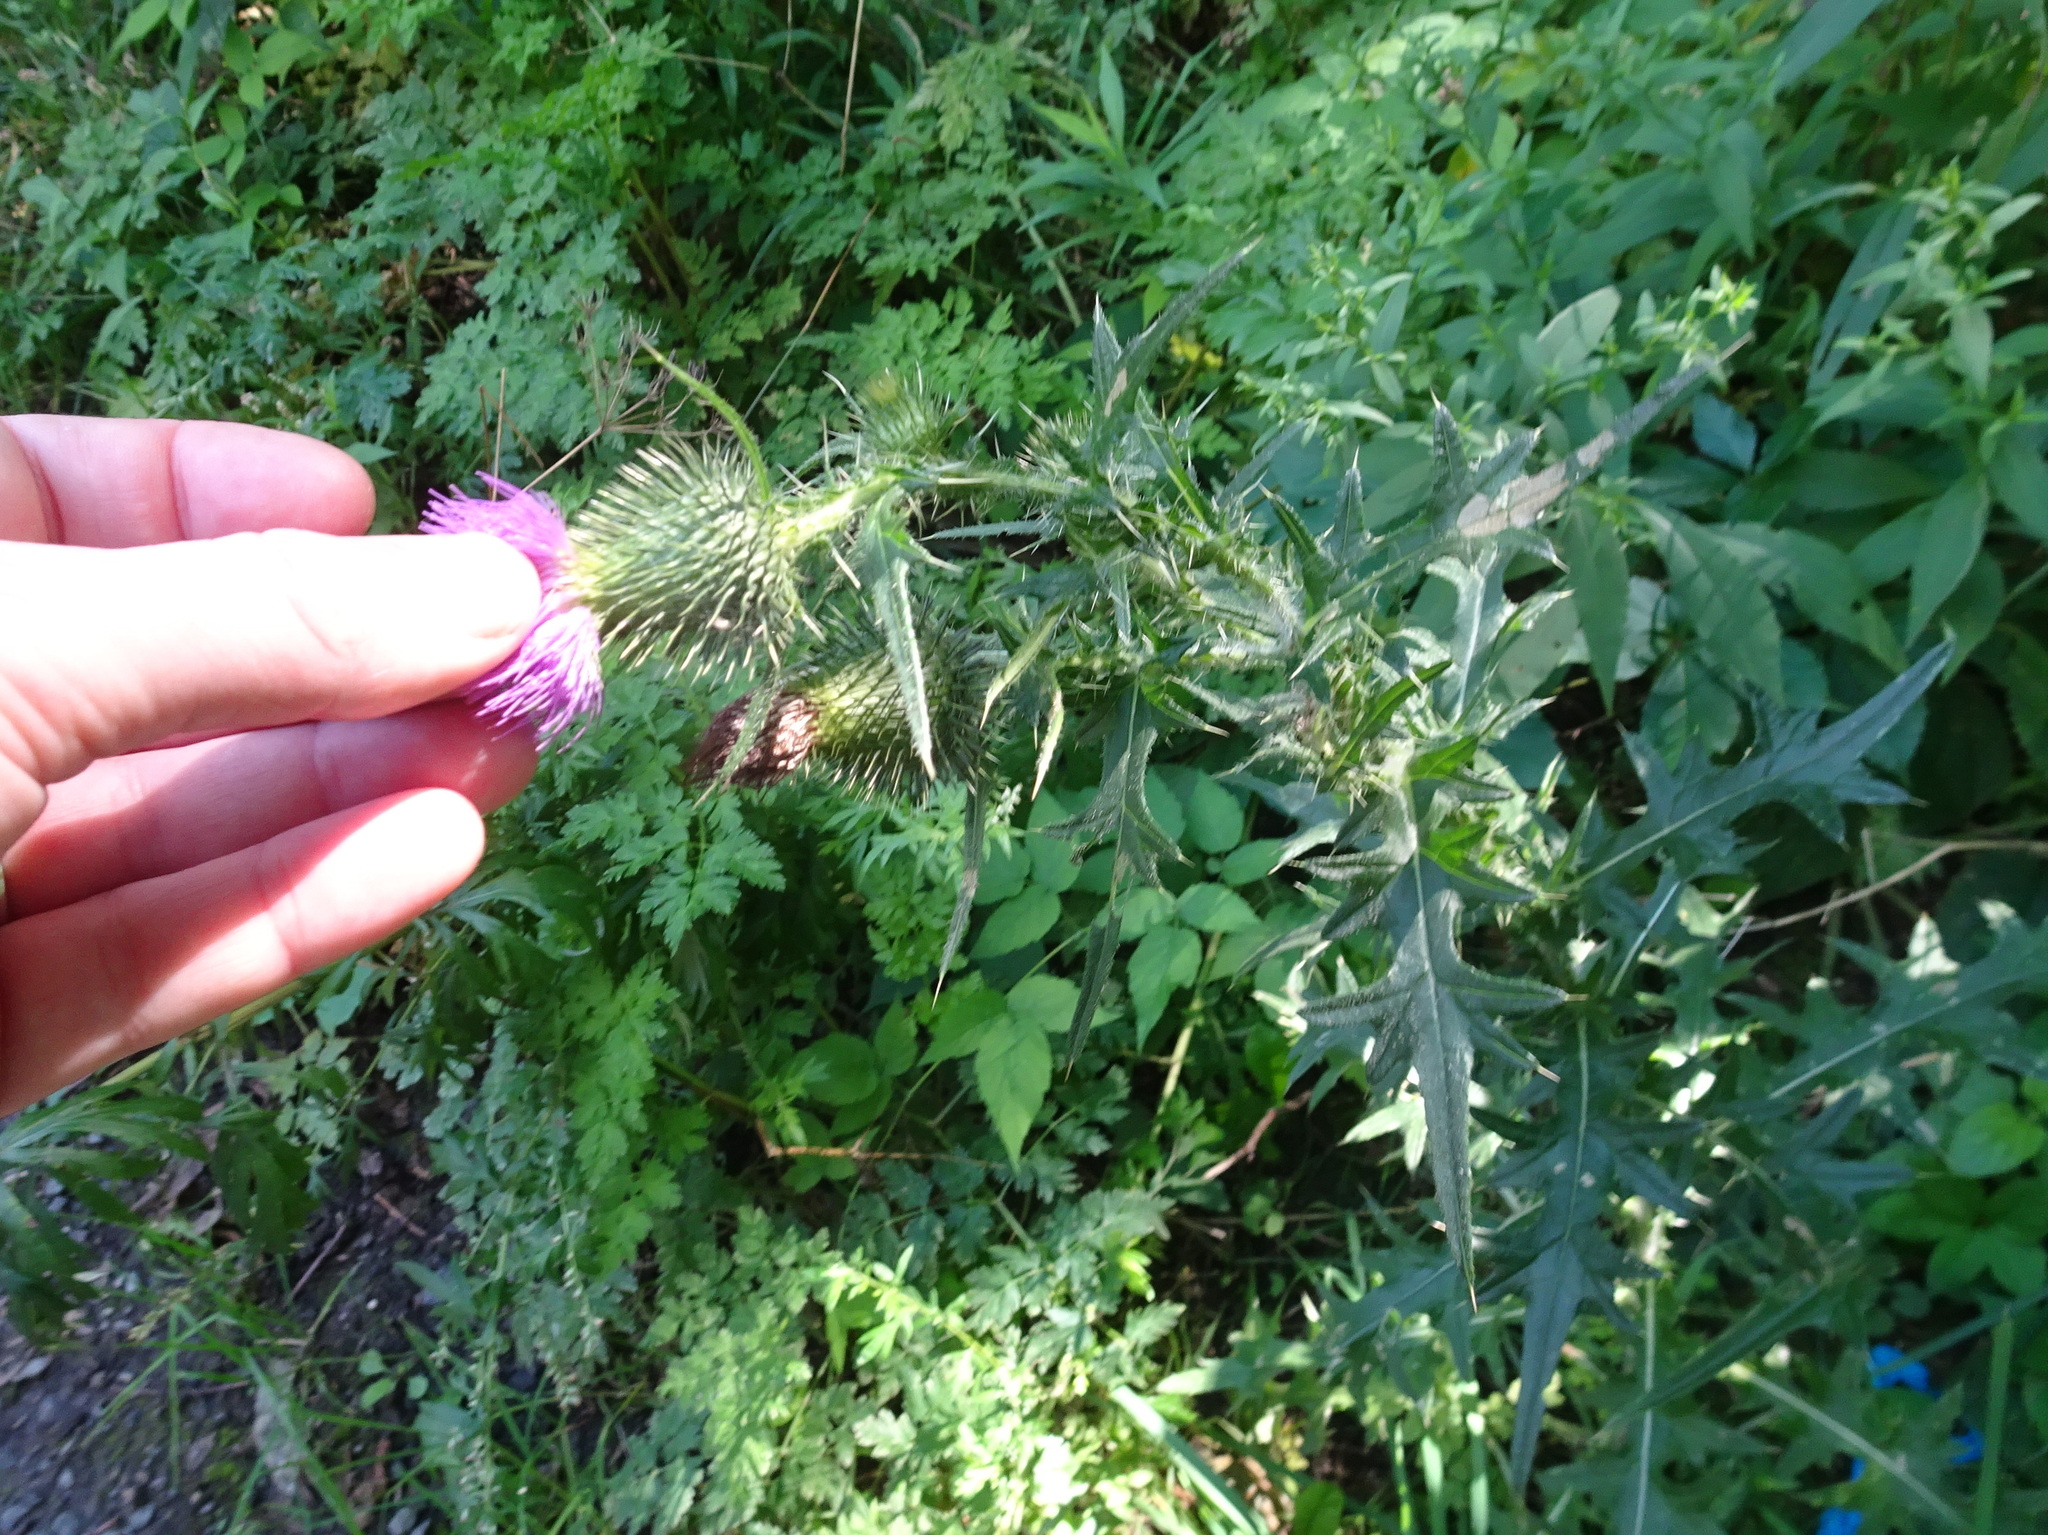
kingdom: Plantae
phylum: Tracheophyta
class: Magnoliopsida
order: Asterales
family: Asteraceae
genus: Cirsium
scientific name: Cirsium vulgare
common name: Bull thistle
